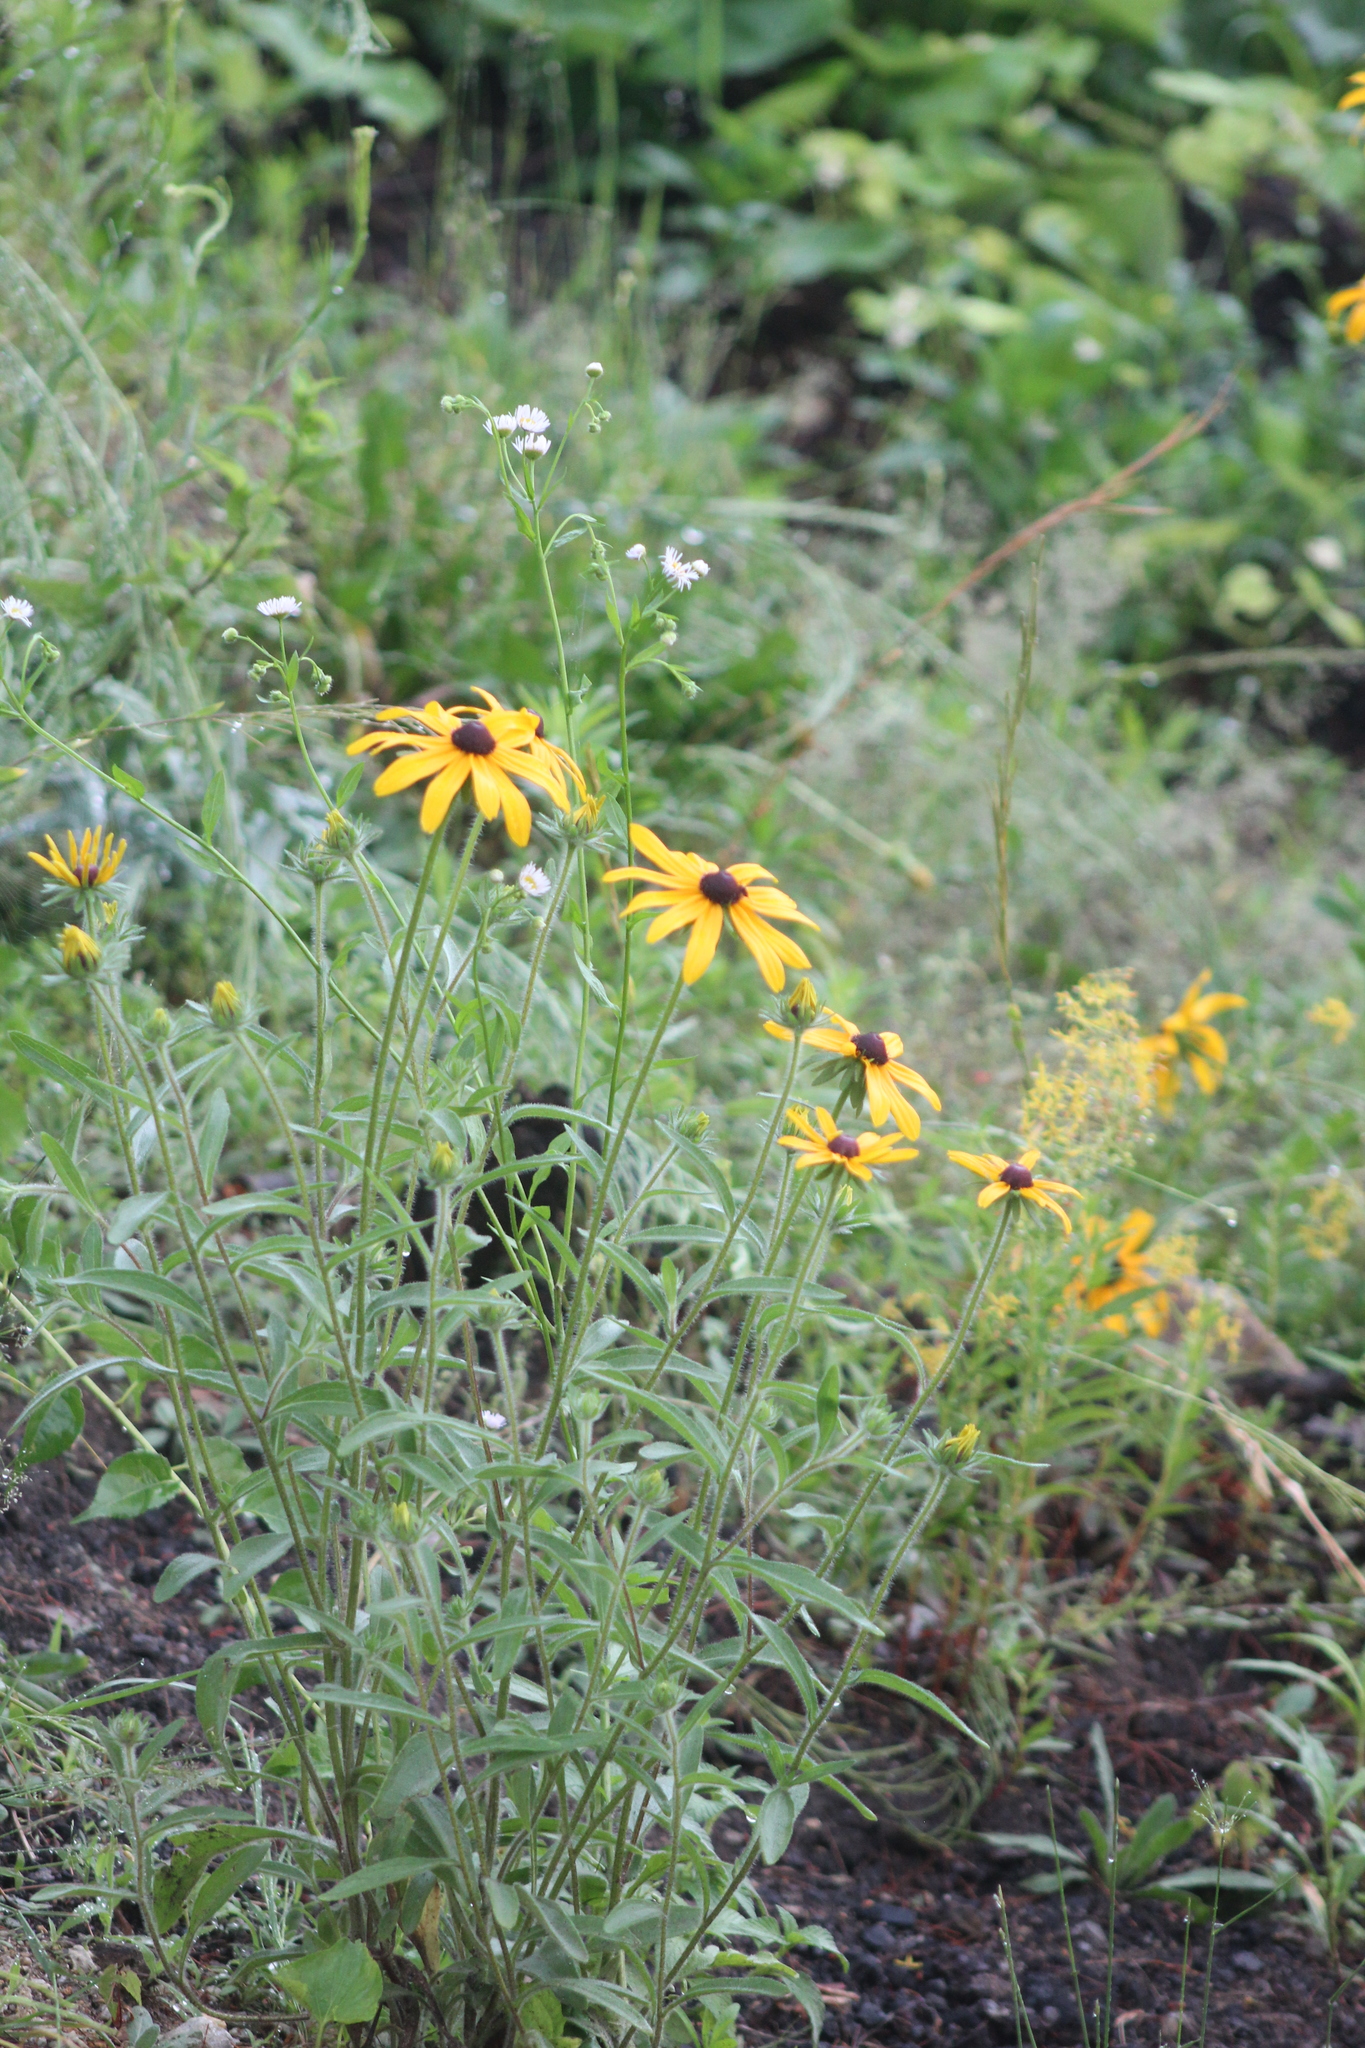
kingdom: Plantae
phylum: Tracheophyta
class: Magnoliopsida
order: Asterales
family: Asteraceae
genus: Rudbeckia
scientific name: Rudbeckia hirta
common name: Black-eyed-susan
